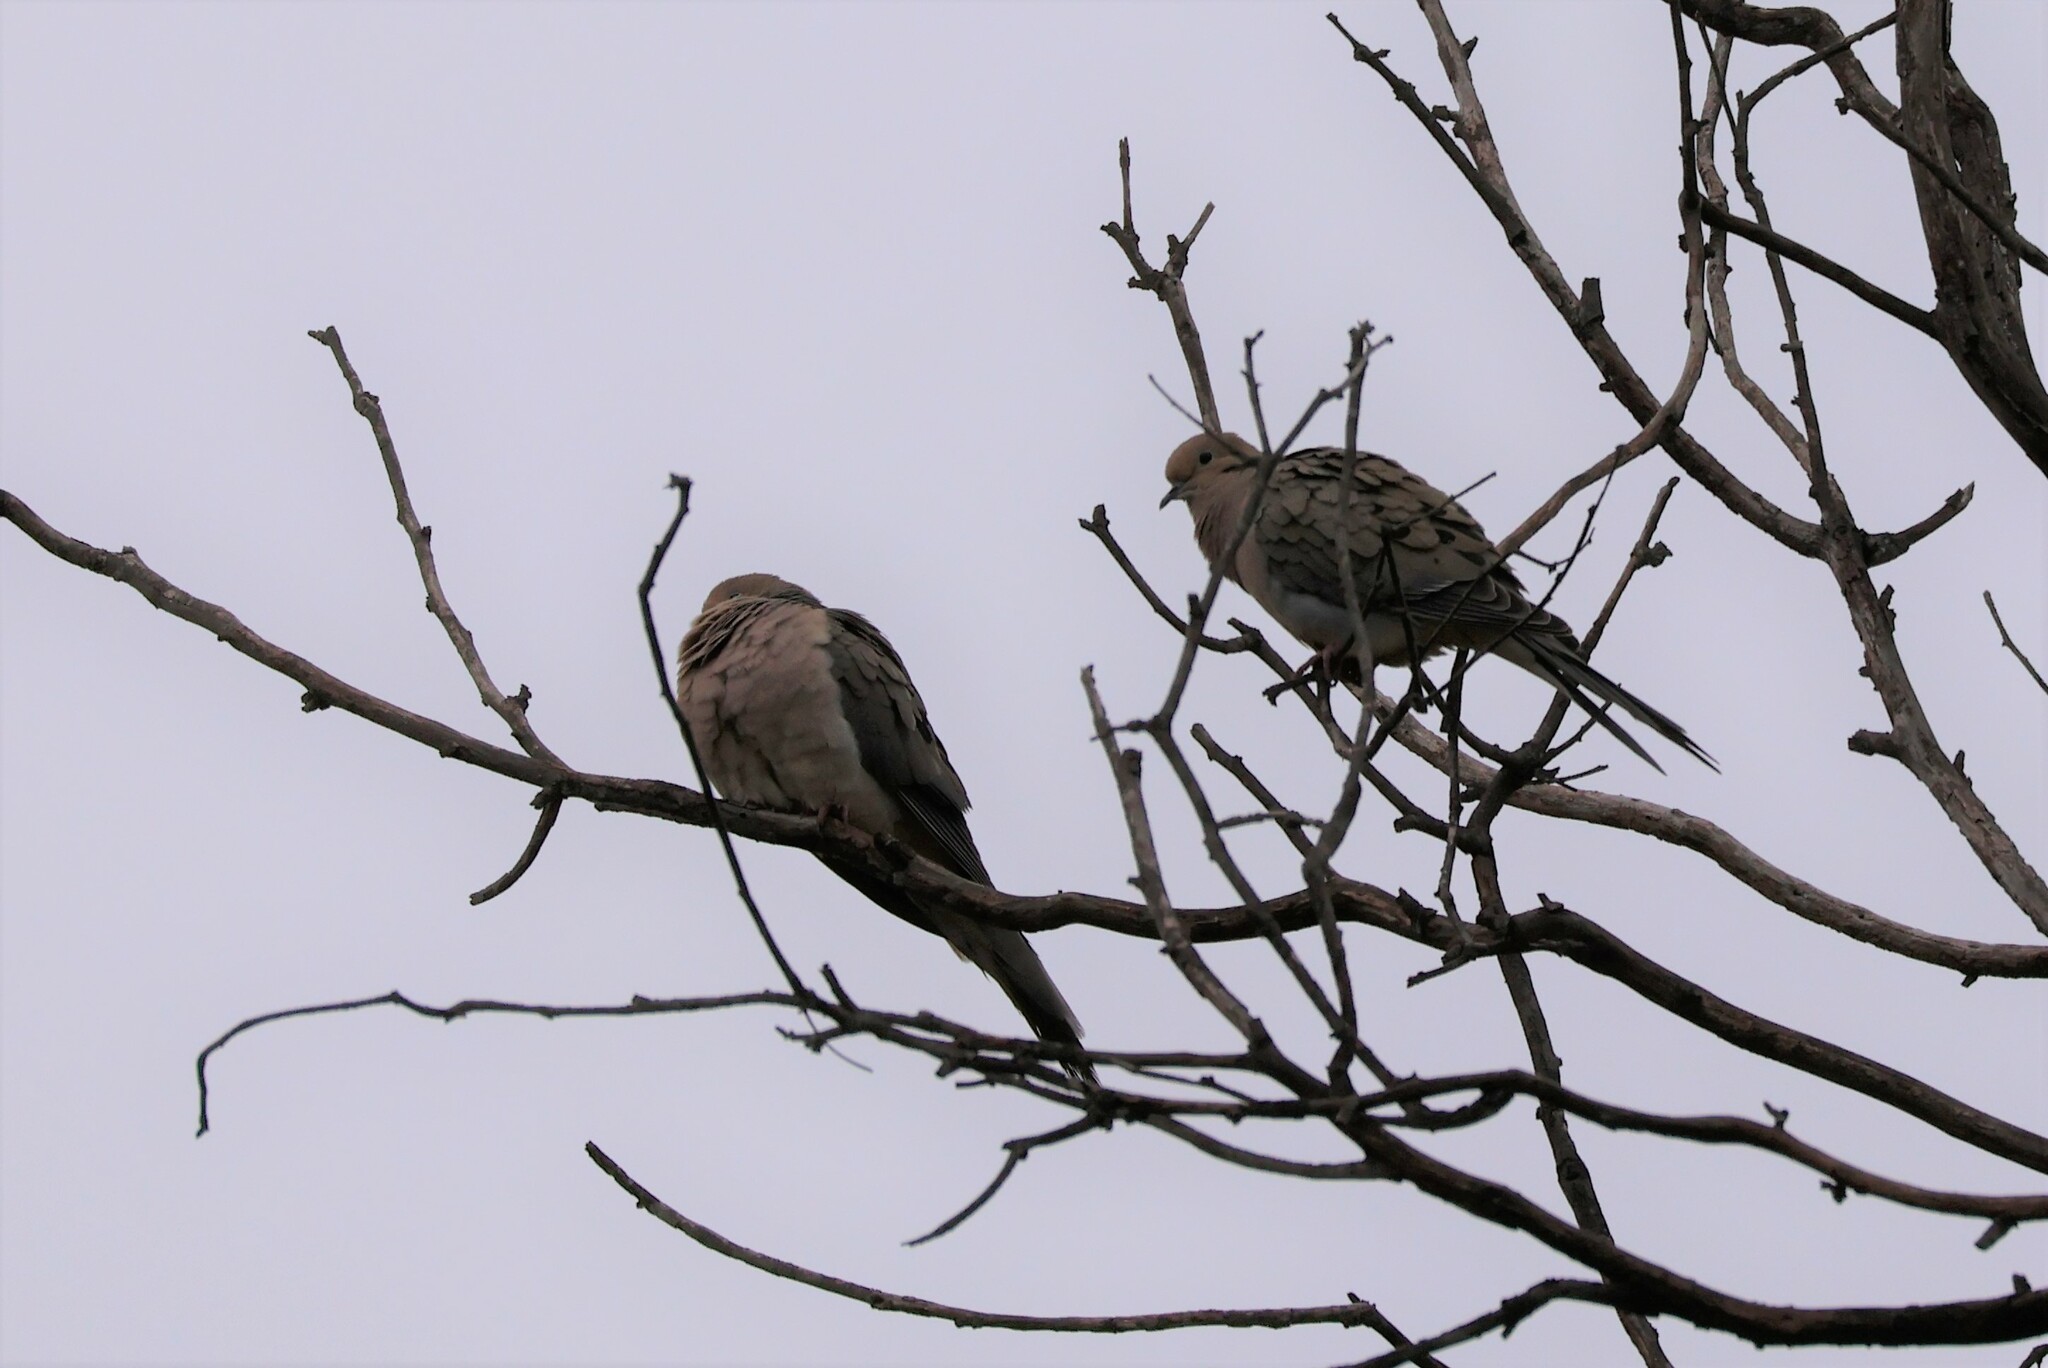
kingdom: Animalia
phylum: Chordata
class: Aves
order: Columbiformes
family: Columbidae
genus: Zenaida
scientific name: Zenaida macroura
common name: Mourning dove
